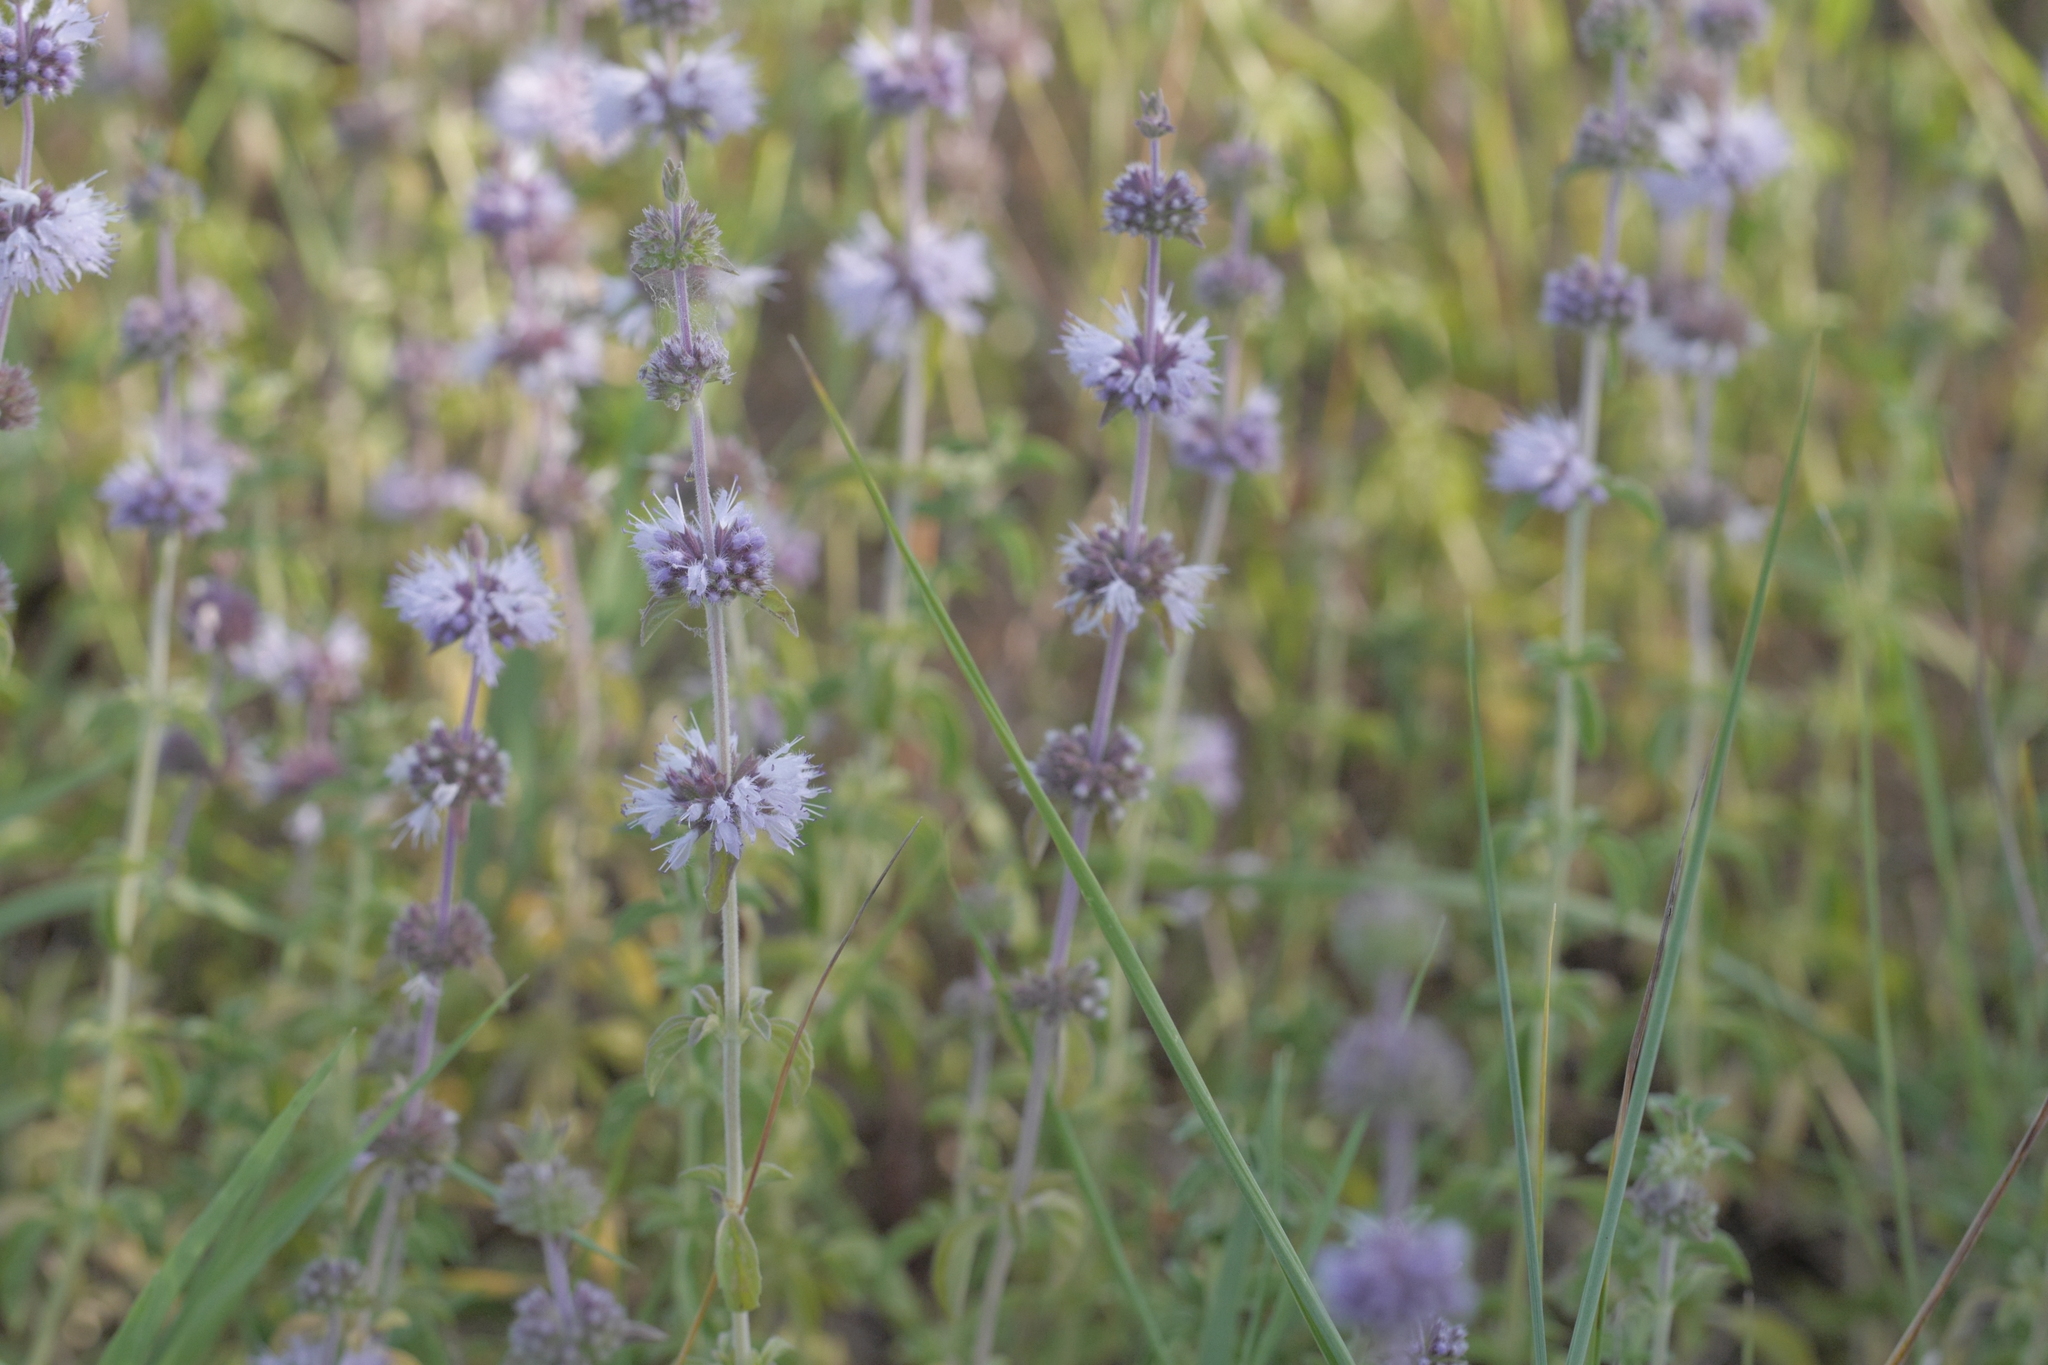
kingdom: Plantae
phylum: Tracheophyta
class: Magnoliopsida
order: Lamiales
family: Lamiaceae
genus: Mentha
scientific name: Mentha pulegium
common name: Pennyroyal
